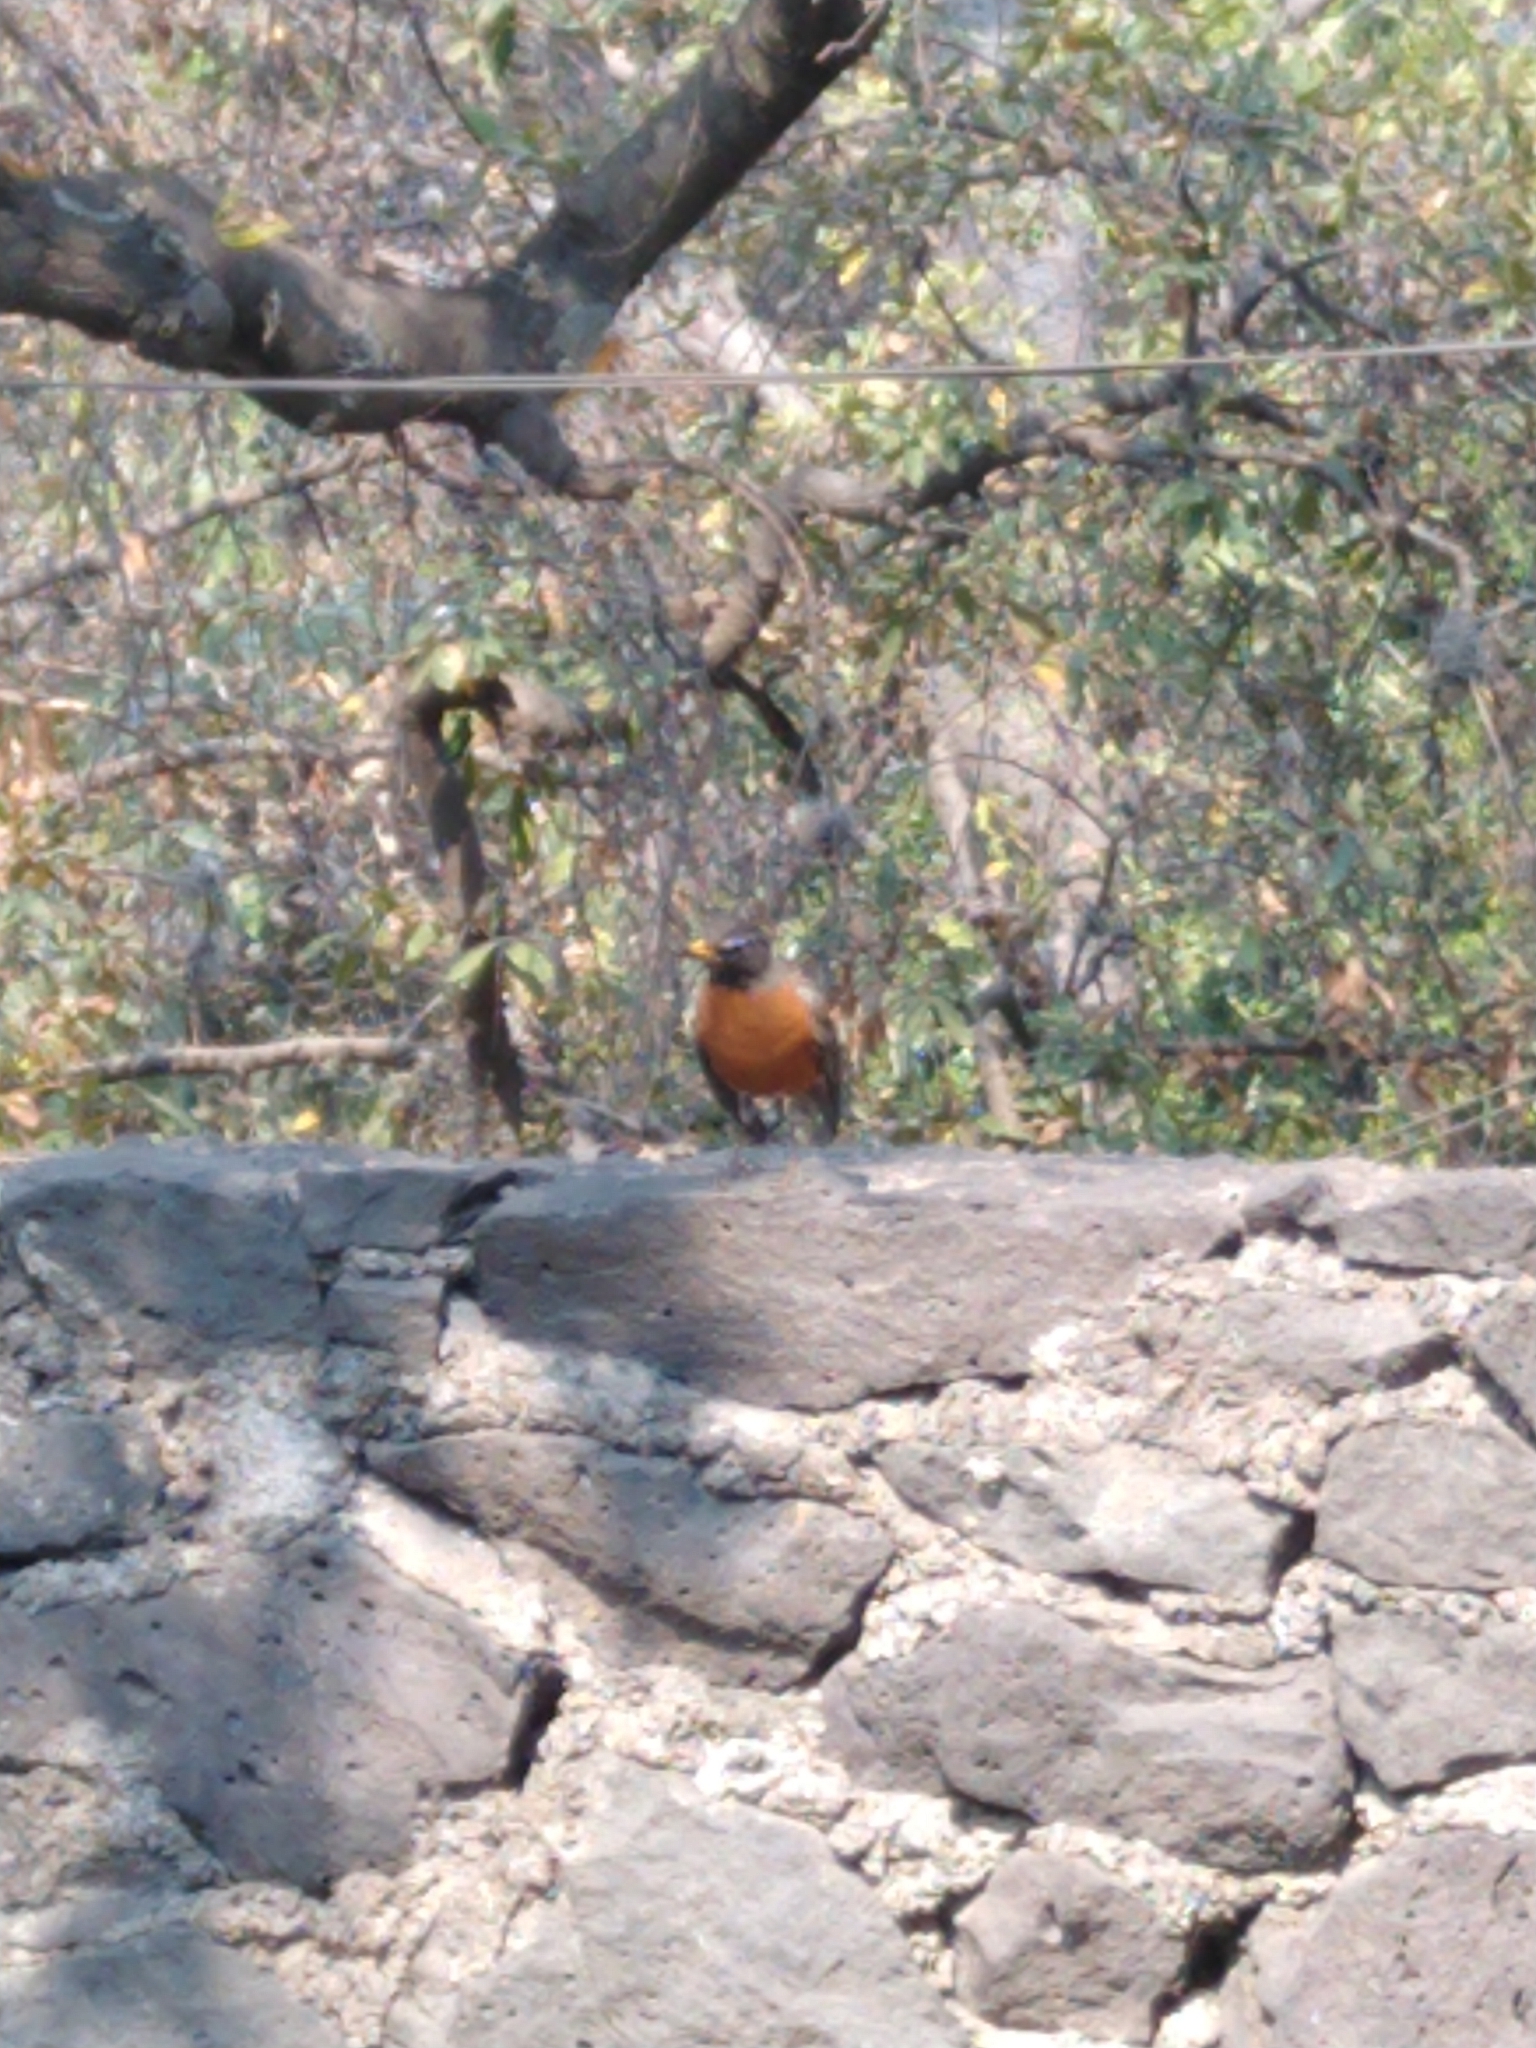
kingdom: Animalia
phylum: Chordata
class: Aves
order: Passeriformes
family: Turdidae
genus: Turdus
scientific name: Turdus migratorius
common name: American robin
